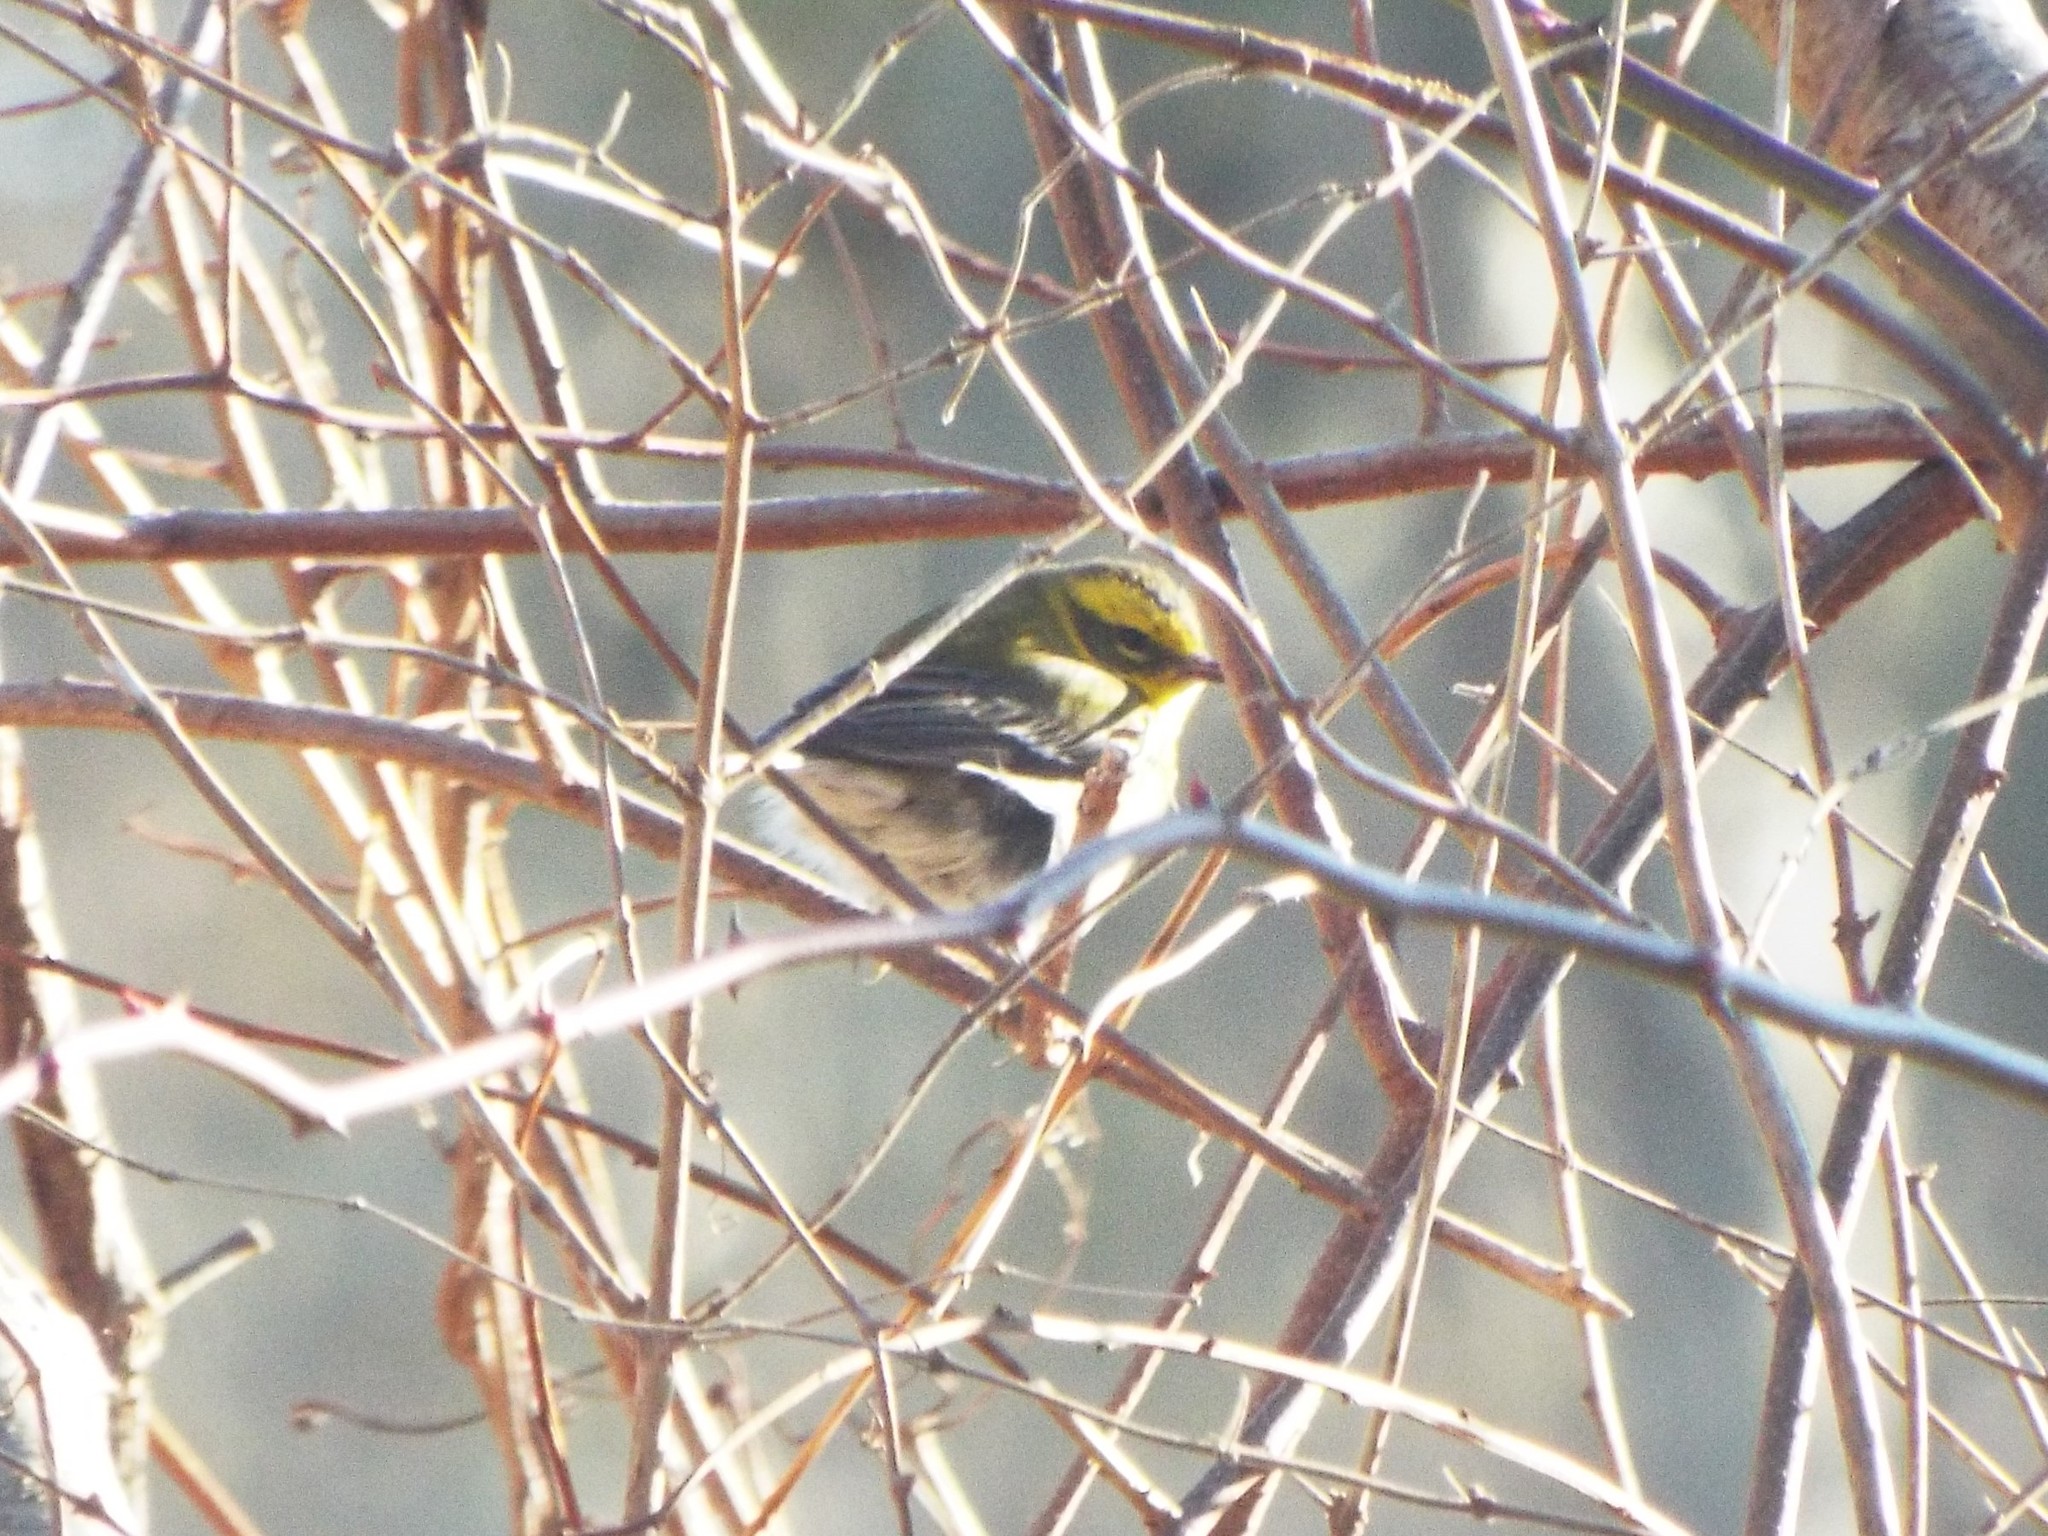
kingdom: Animalia
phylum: Chordata
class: Aves
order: Passeriformes
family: Parulidae
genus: Setophaga
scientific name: Setophaga townsendi
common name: Townsend's warbler
